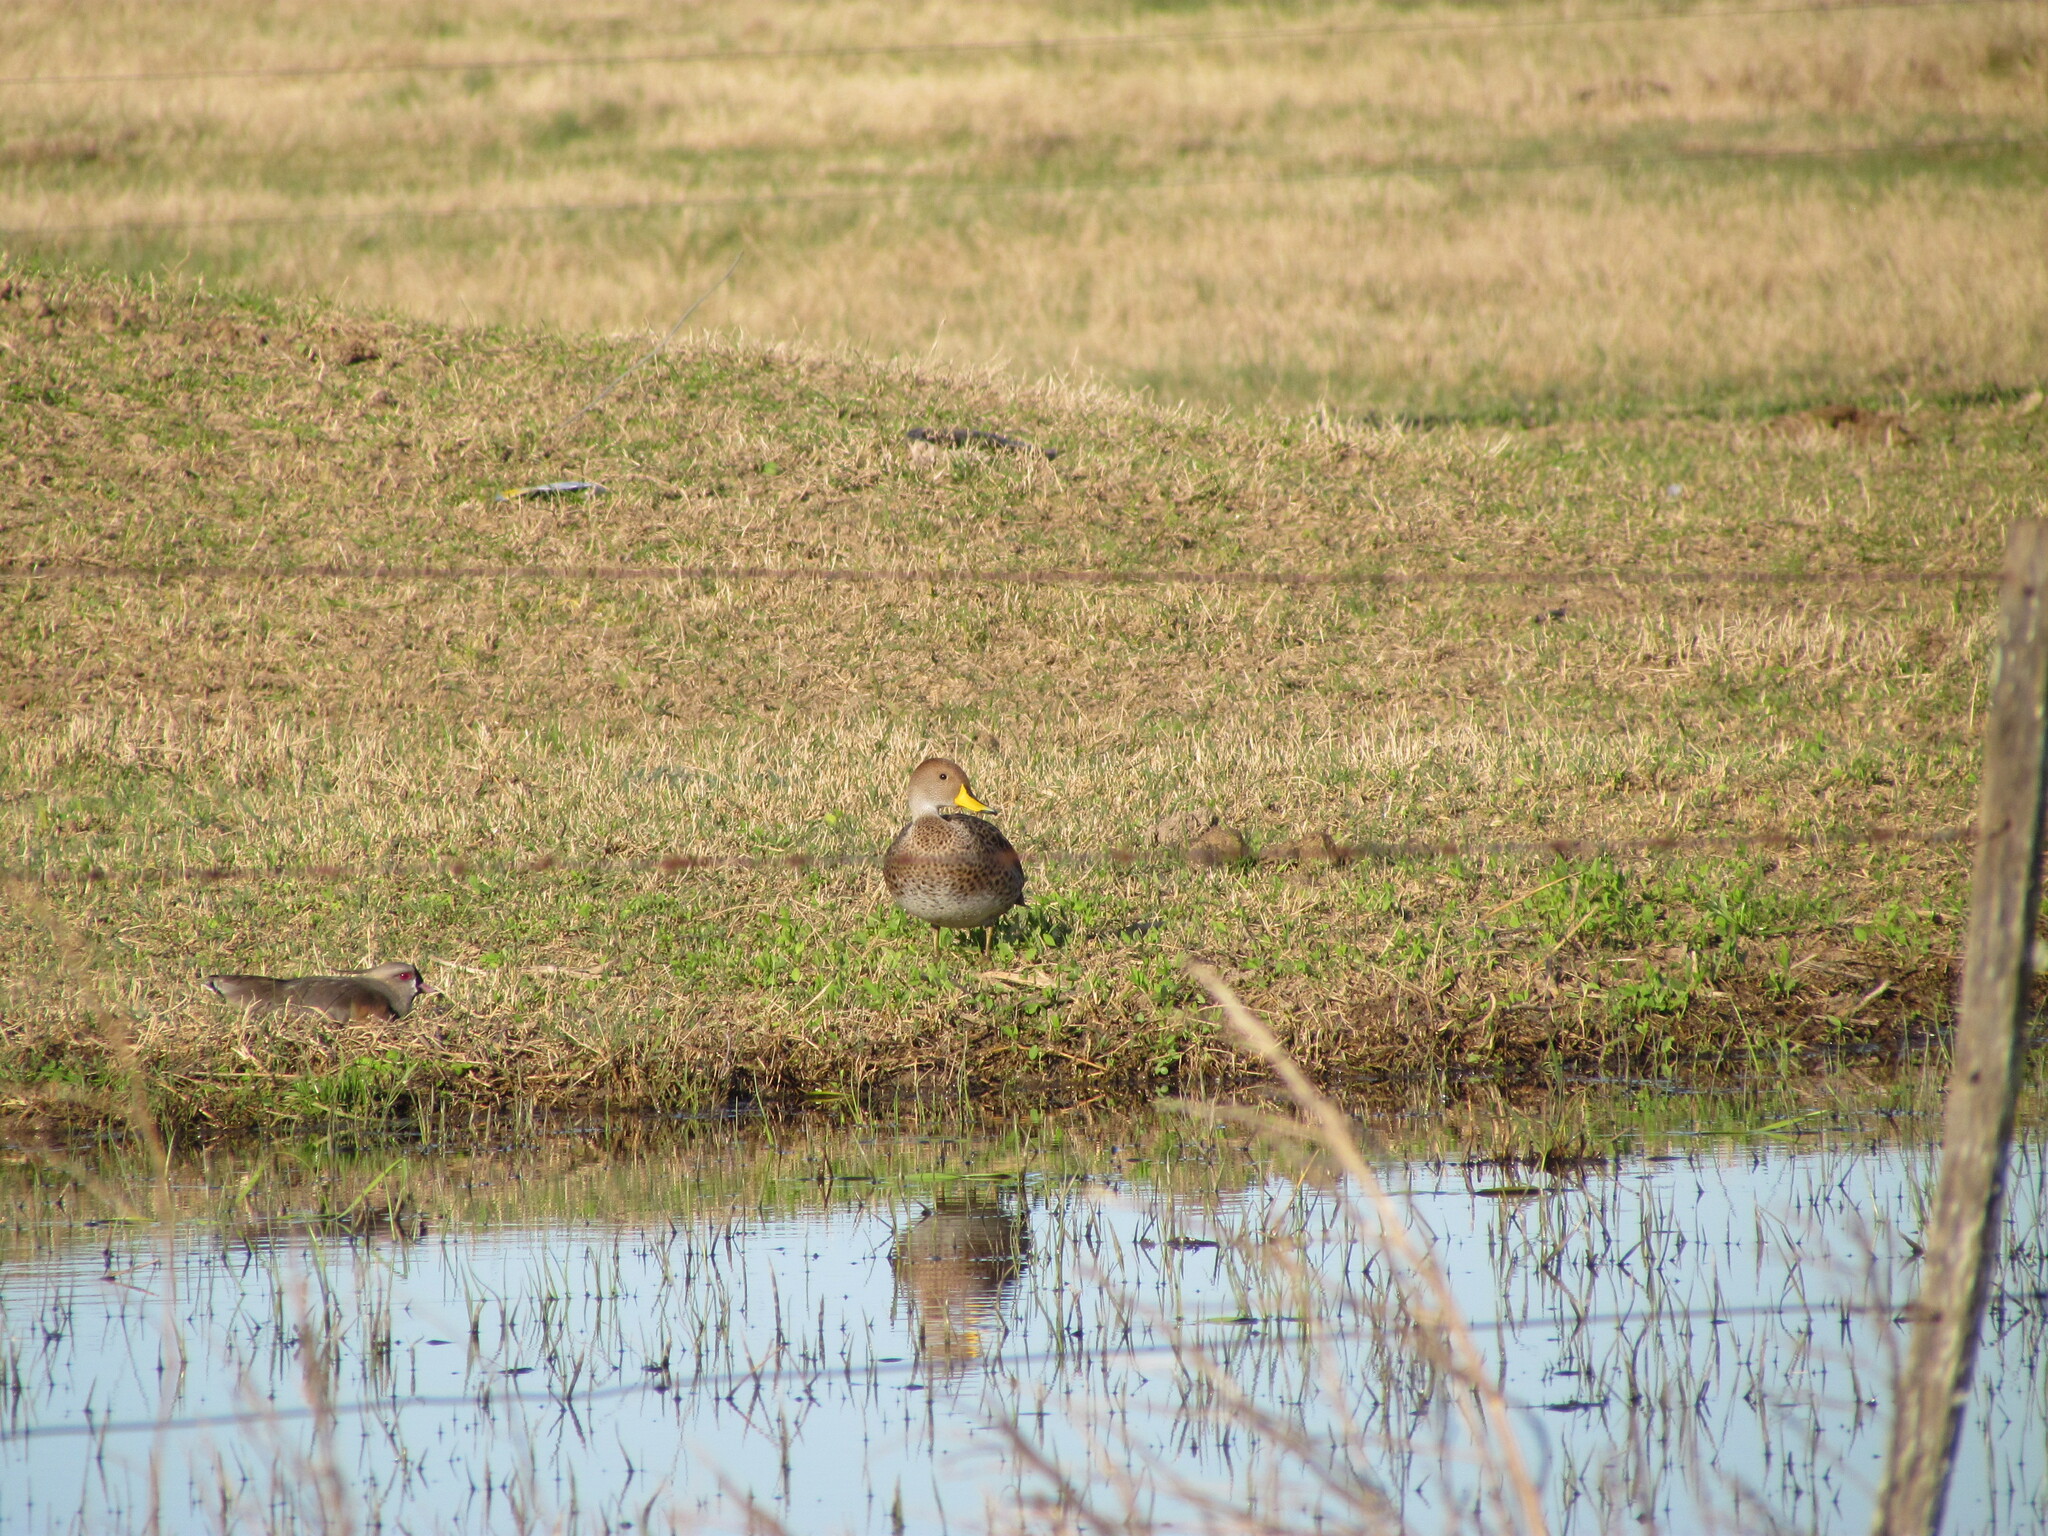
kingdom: Animalia
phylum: Chordata
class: Aves
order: Anseriformes
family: Anatidae
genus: Anas
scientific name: Anas georgica
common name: Yellow-billed pintail
